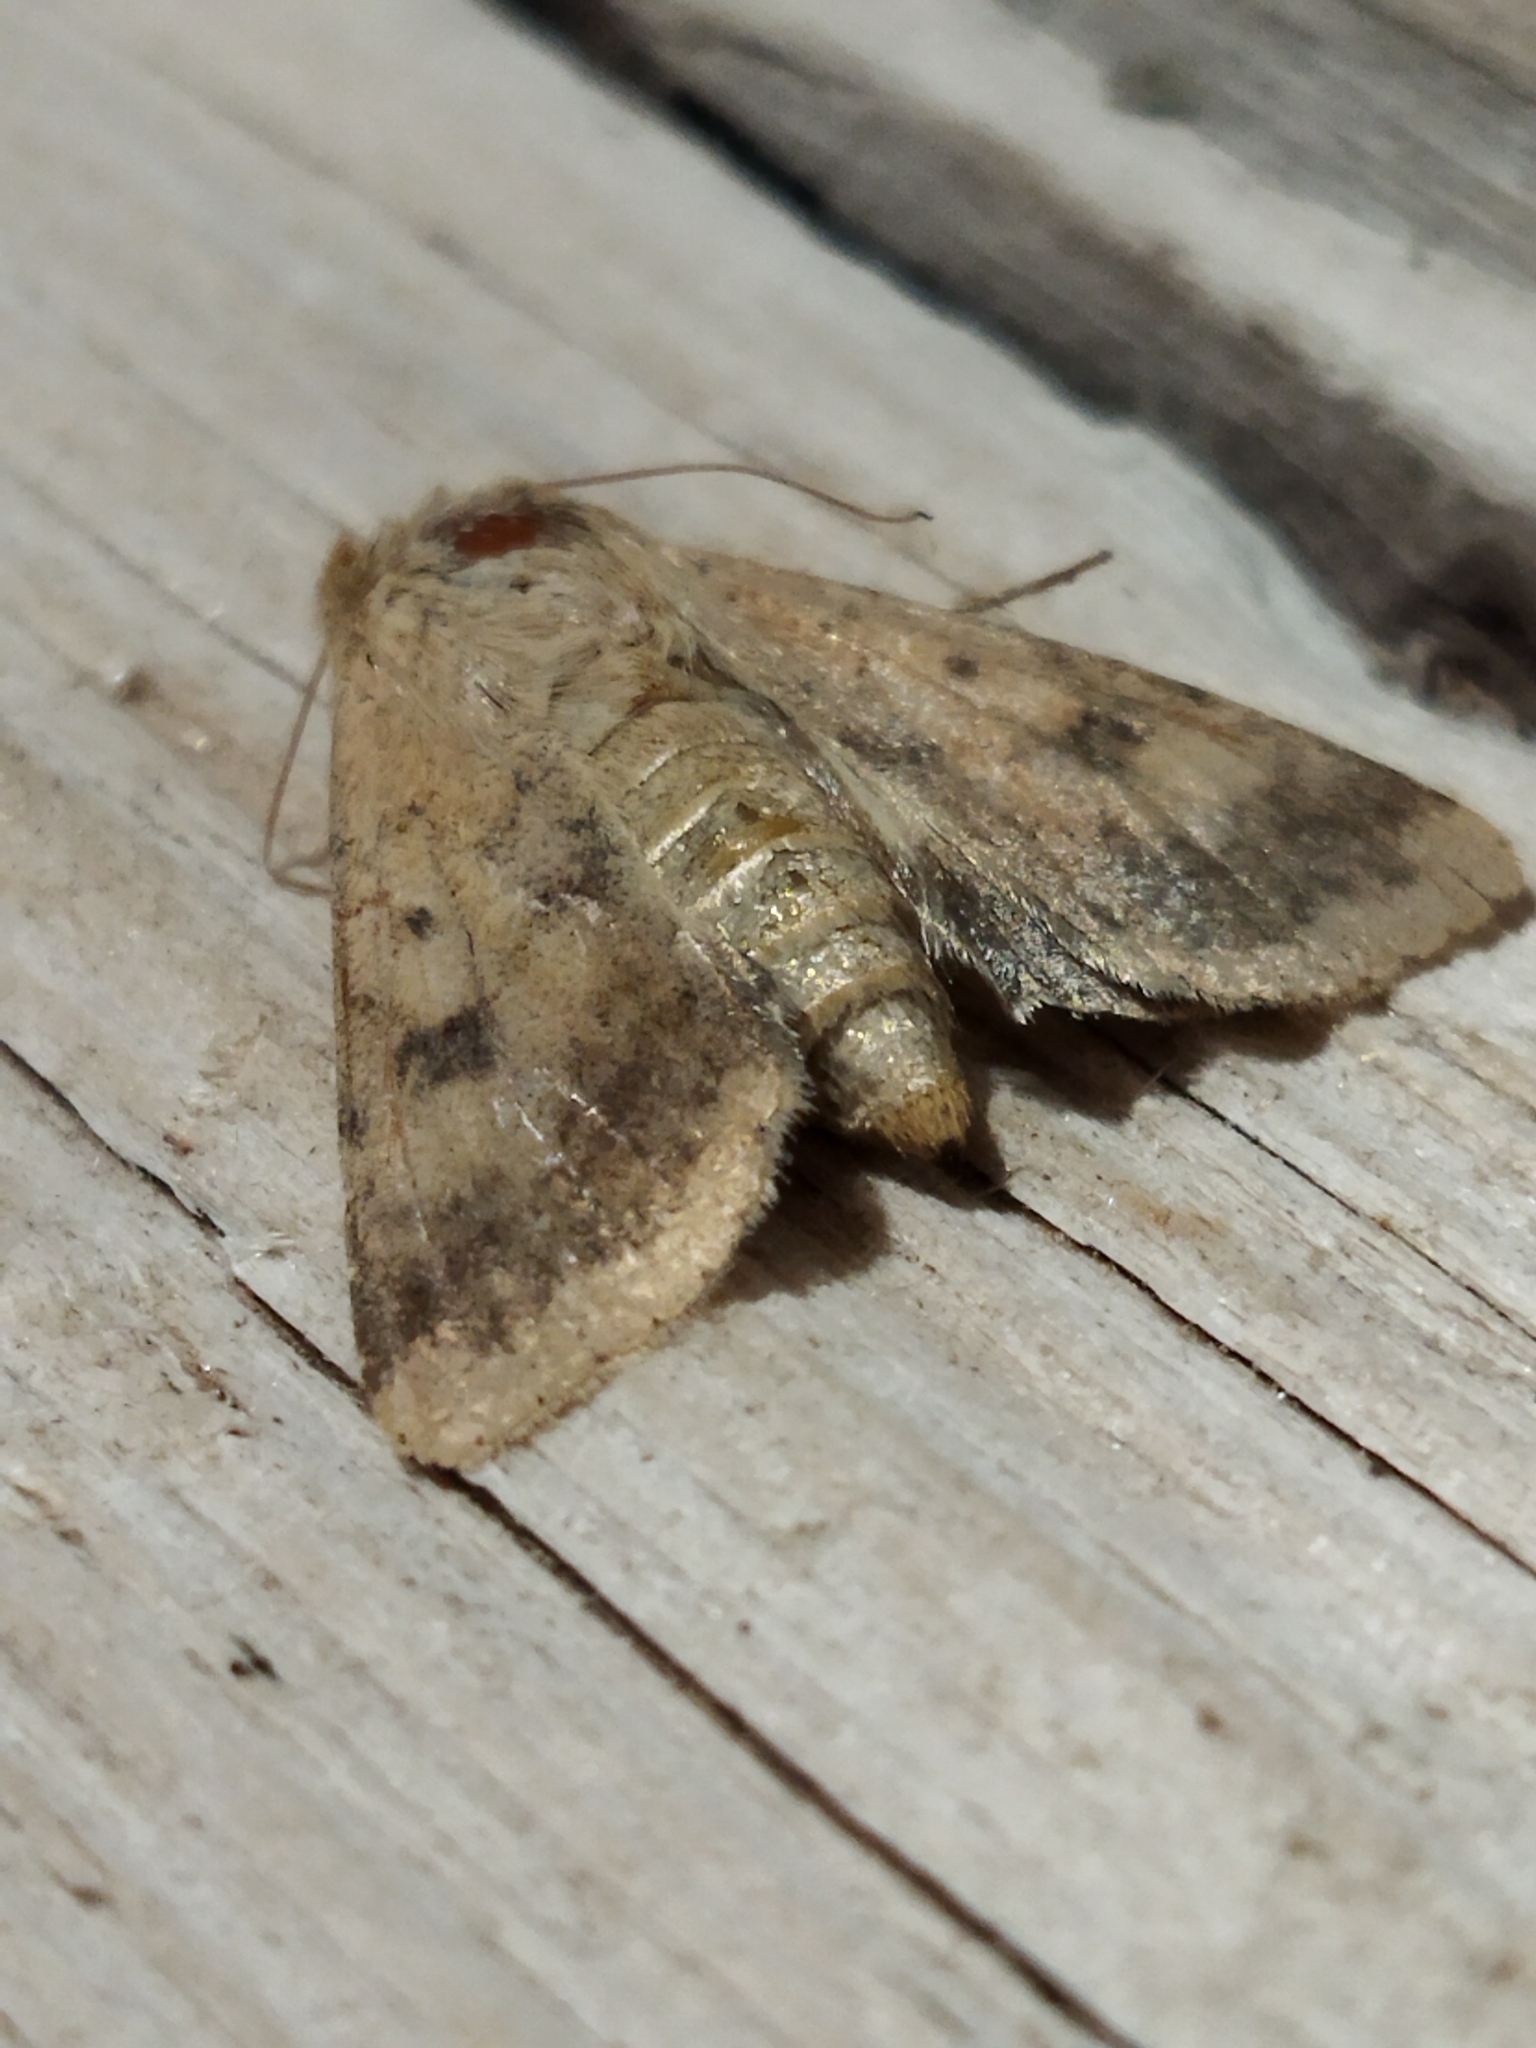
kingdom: Animalia
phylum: Arthropoda
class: Insecta
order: Lepidoptera
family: Noctuidae
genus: Helicoverpa
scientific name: Helicoverpa armigera
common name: Cotton bollworm
